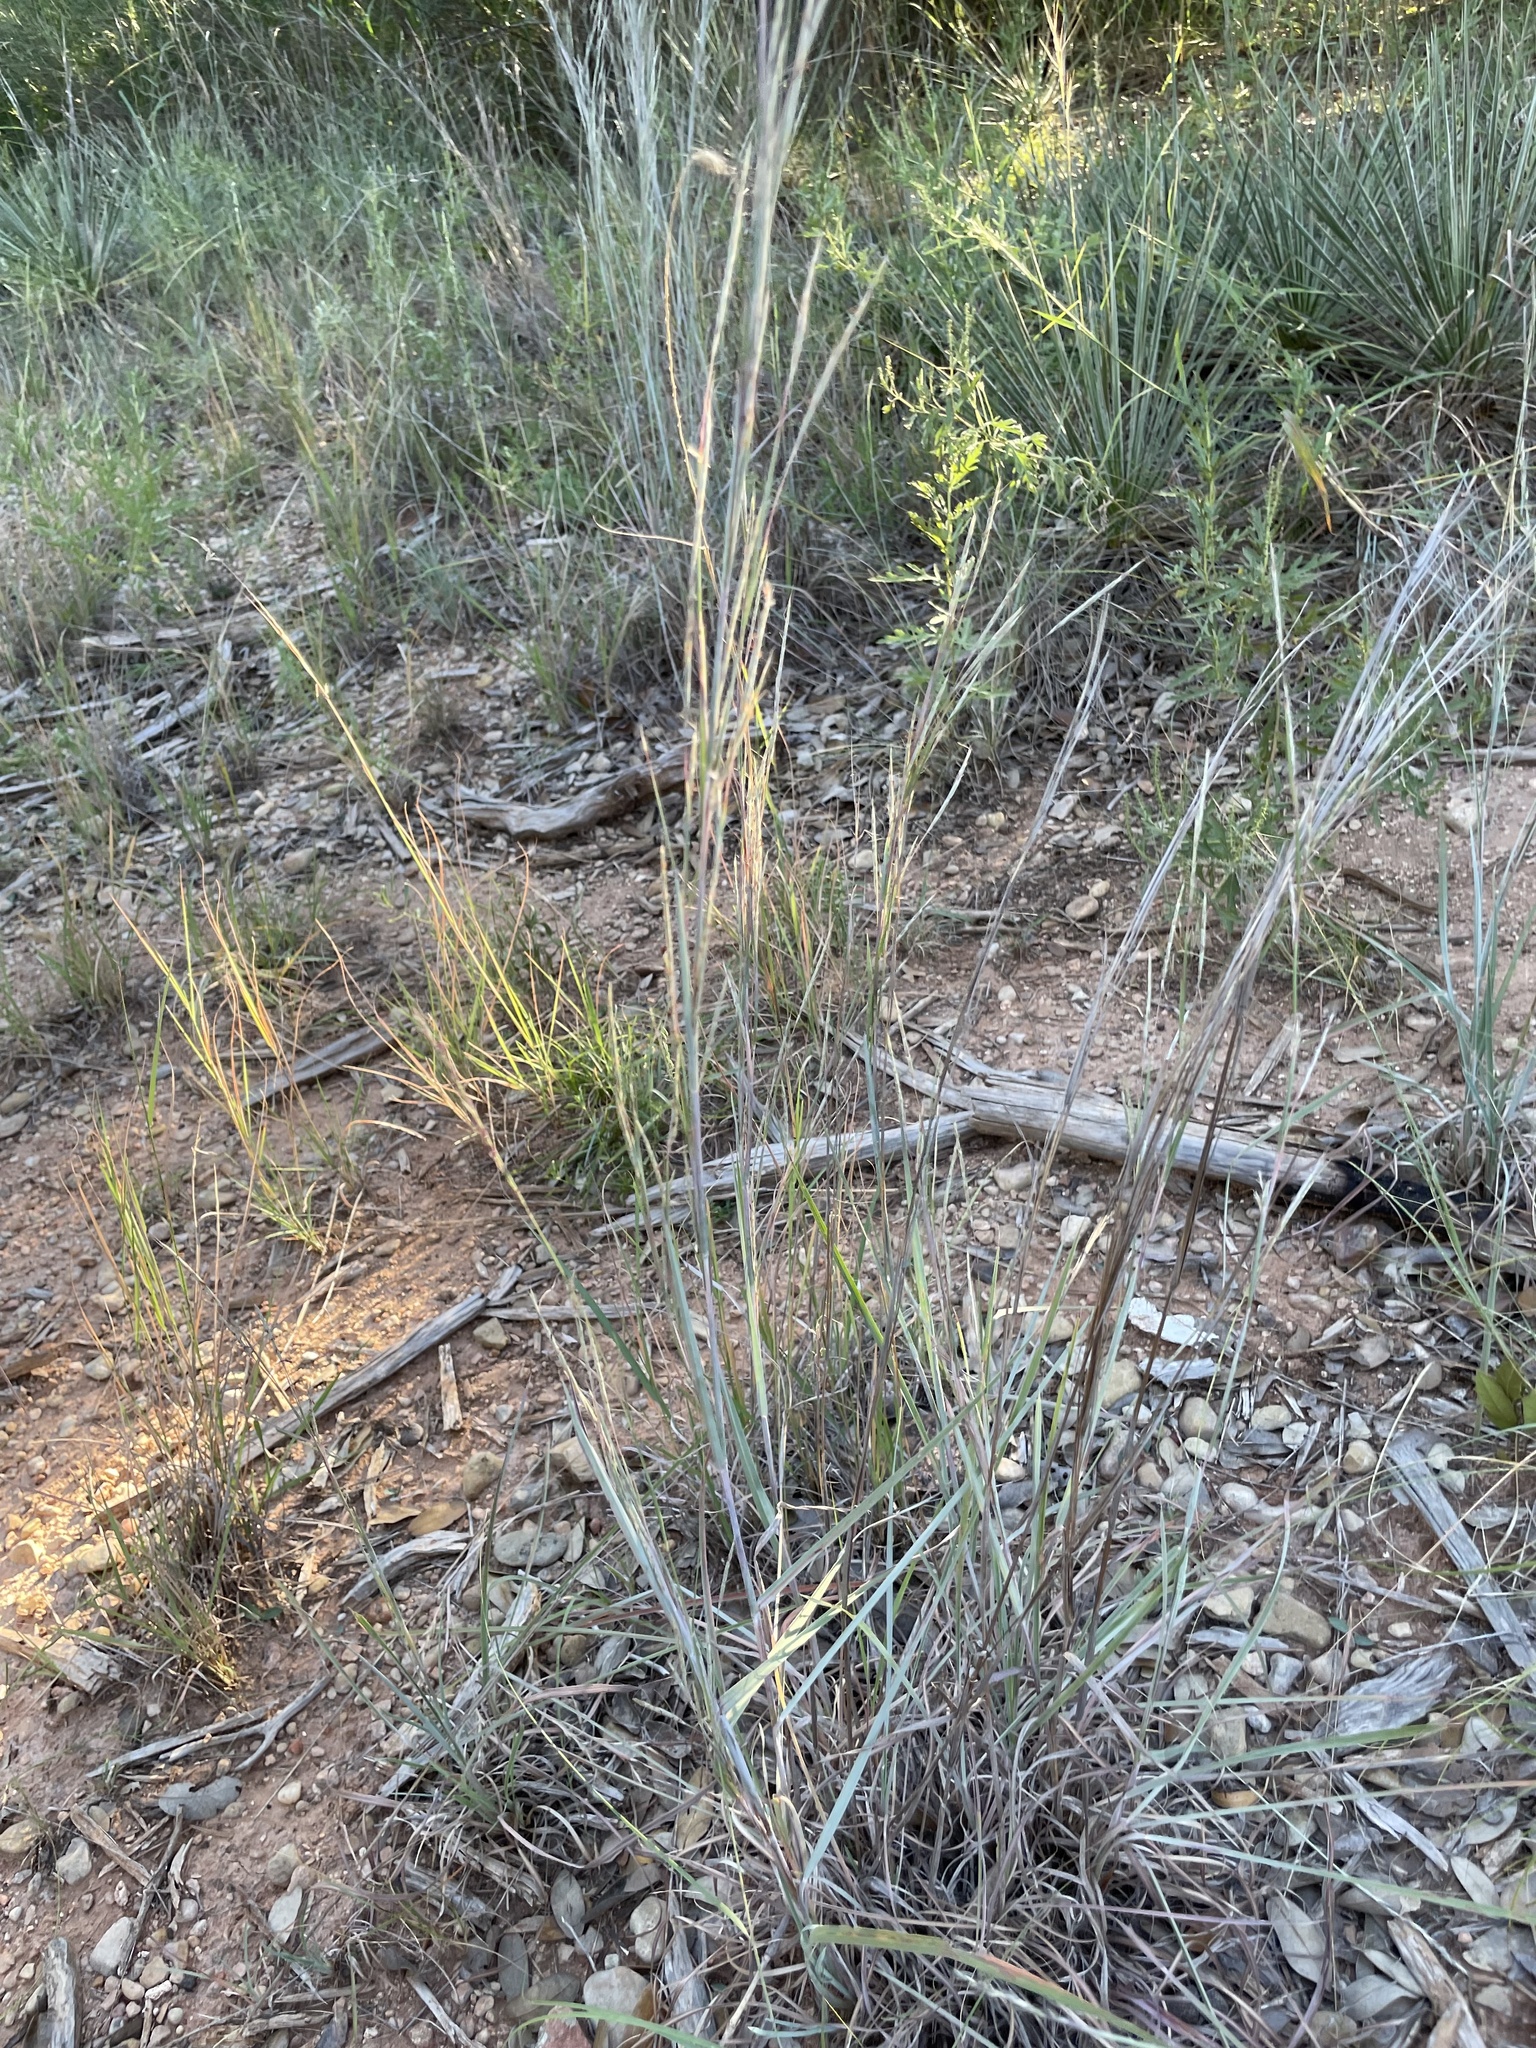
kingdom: Plantae
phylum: Tracheophyta
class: Liliopsida
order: Poales
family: Poaceae
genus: Schizachyrium
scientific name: Schizachyrium scoparium
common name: Little bluestem
